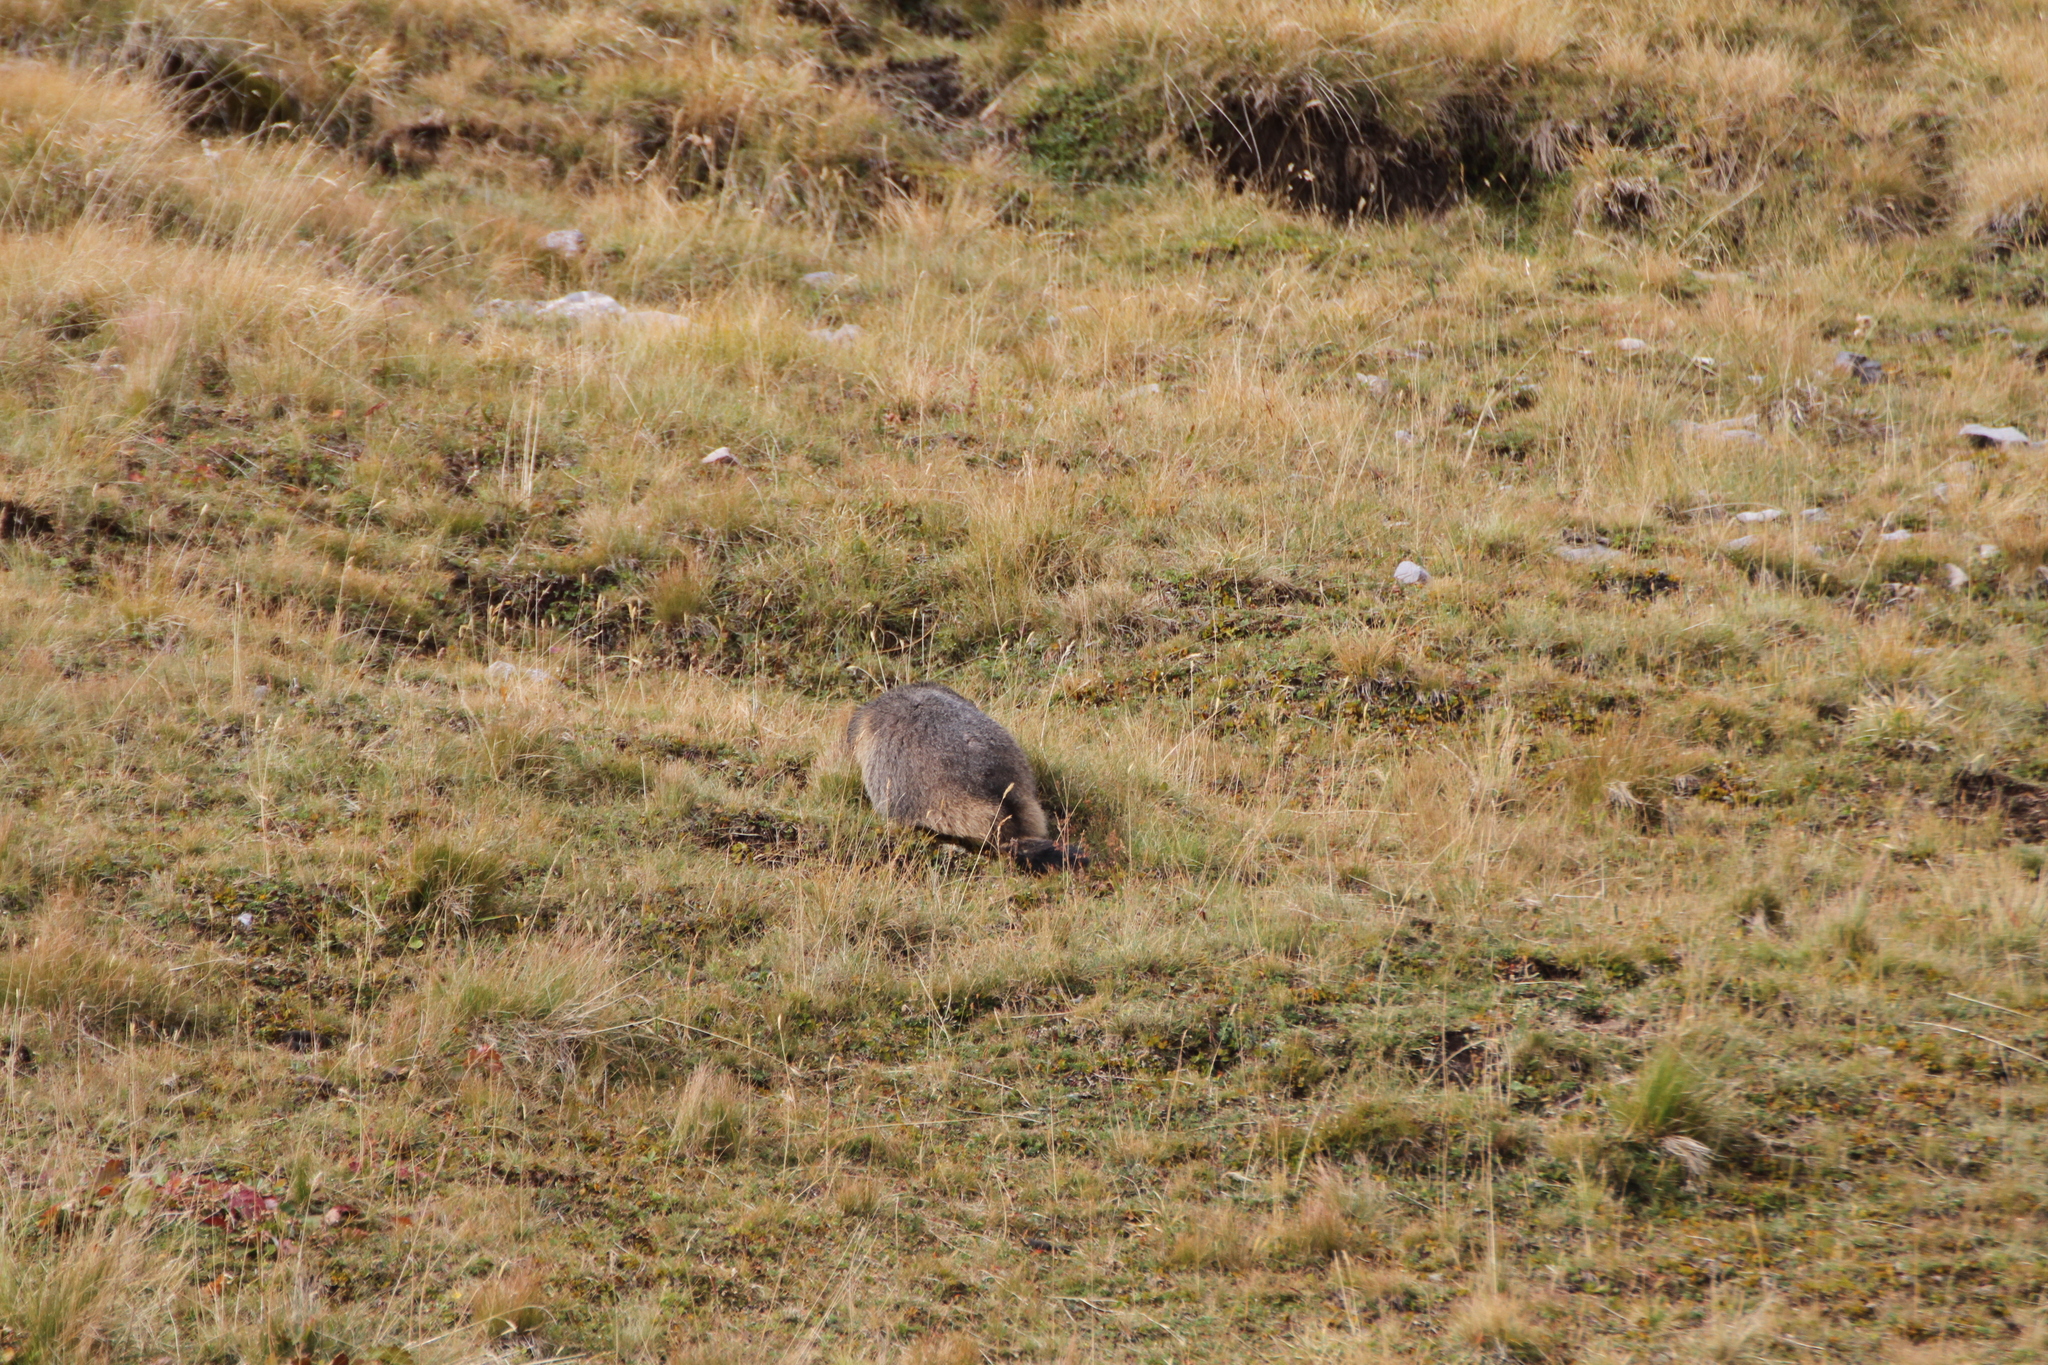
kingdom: Animalia
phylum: Chordata
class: Mammalia
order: Rodentia
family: Sciuridae
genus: Marmota
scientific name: Marmota marmota
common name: Alpine marmot
